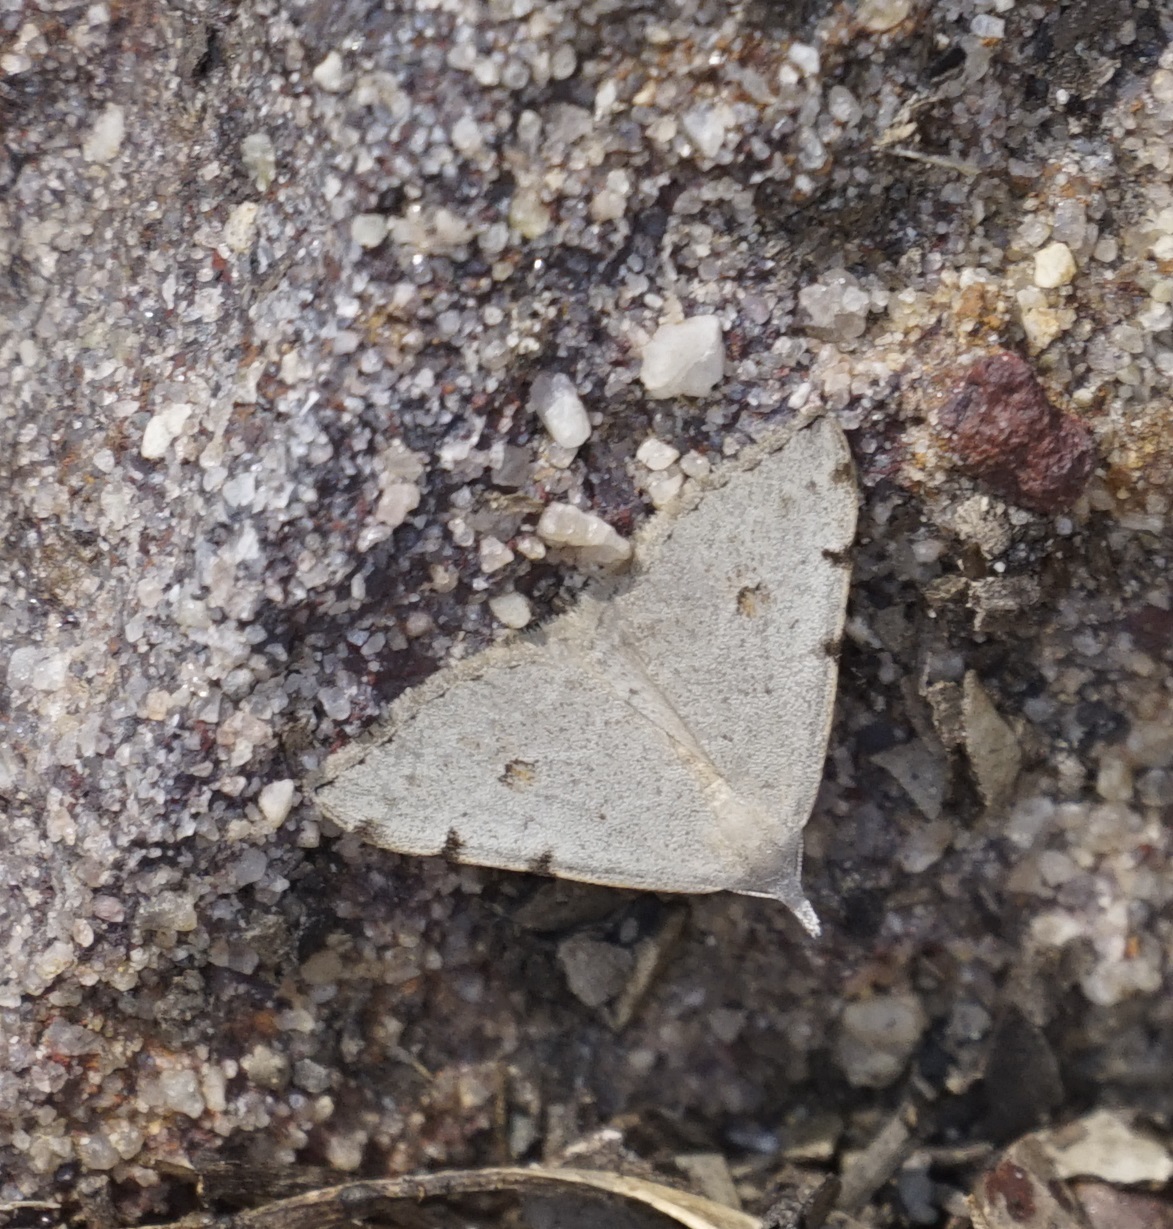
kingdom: Animalia
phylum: Arthropoda
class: Insecta
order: Lepidoptera
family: Geometridae
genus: Dichromodes
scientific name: Dichromodes estigmaria
